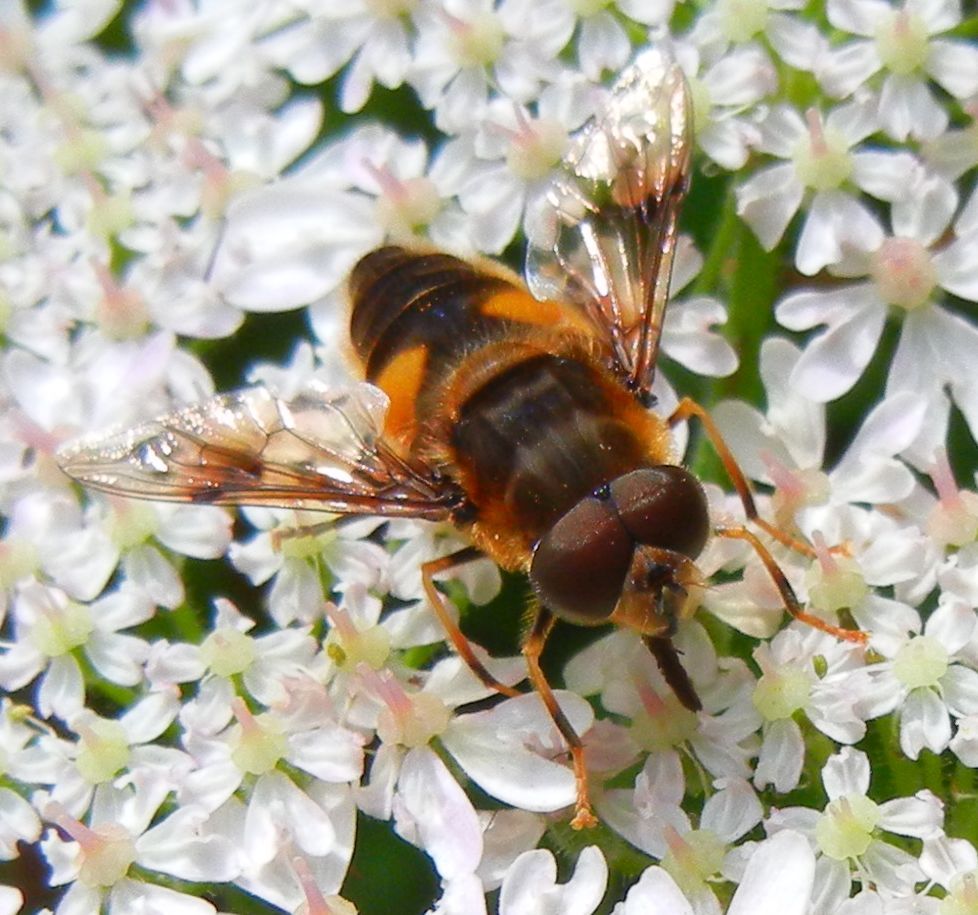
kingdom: Animalia
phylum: Arthropoda
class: Insecta
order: Diptera
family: Syrphidae
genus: Eristalis
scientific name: Eristalis pertinax
